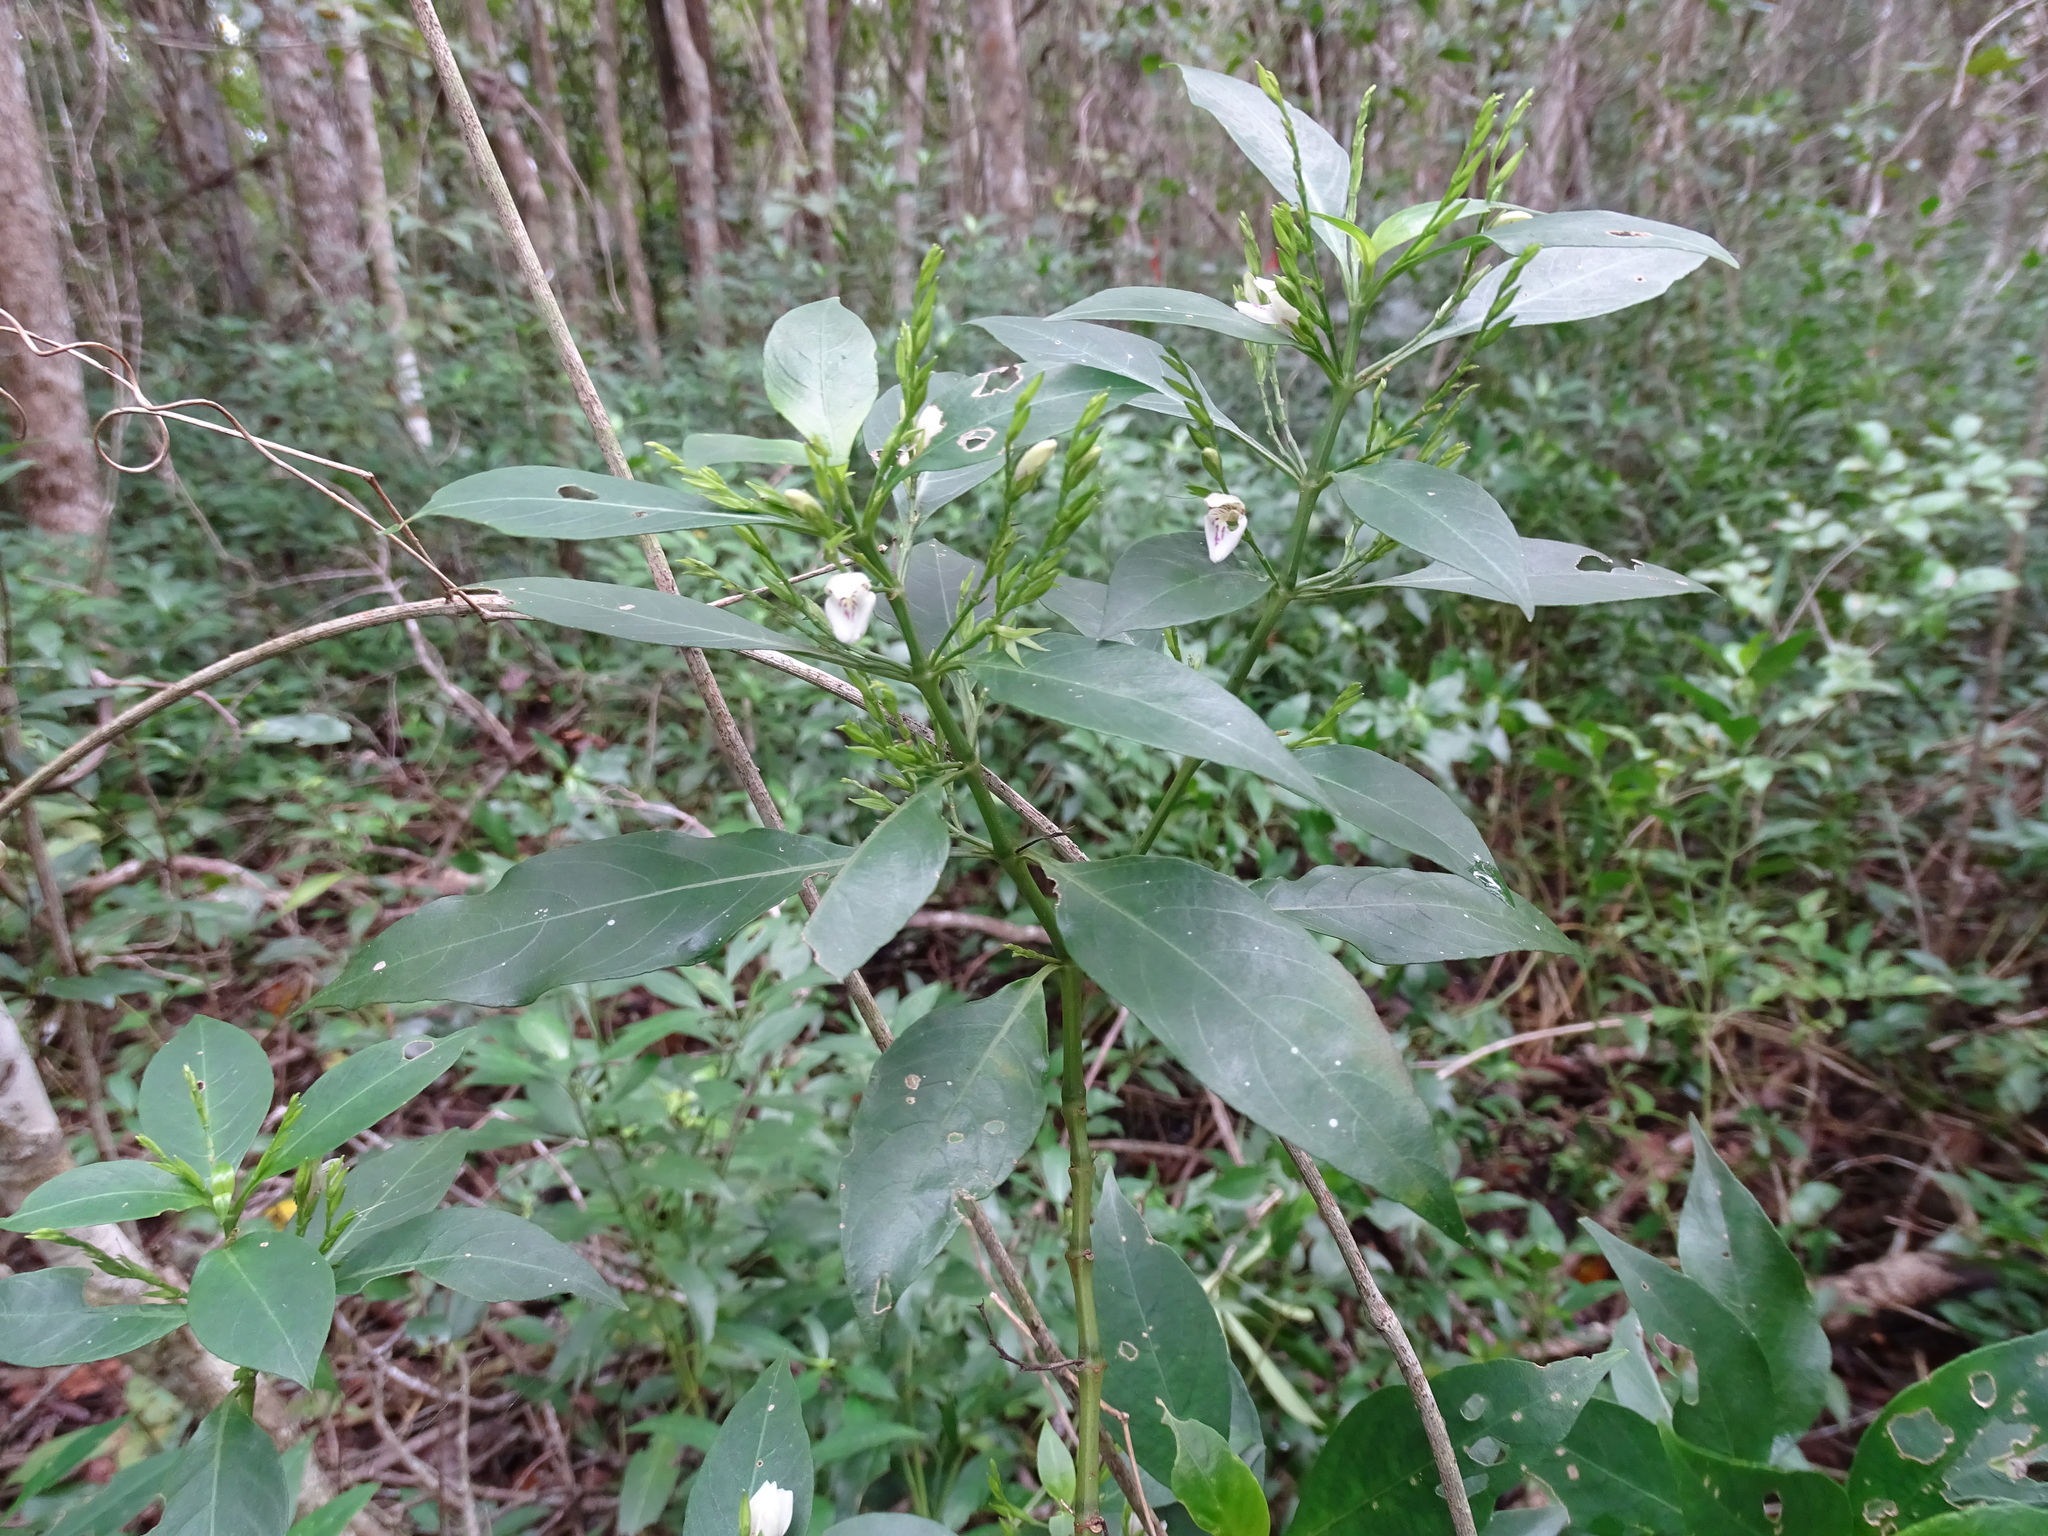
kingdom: Plantae
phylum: Tracheophyta
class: Magnoliopsida
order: Lamiales
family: Acanthaceae
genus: Justicia
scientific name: Justicia campechiana
